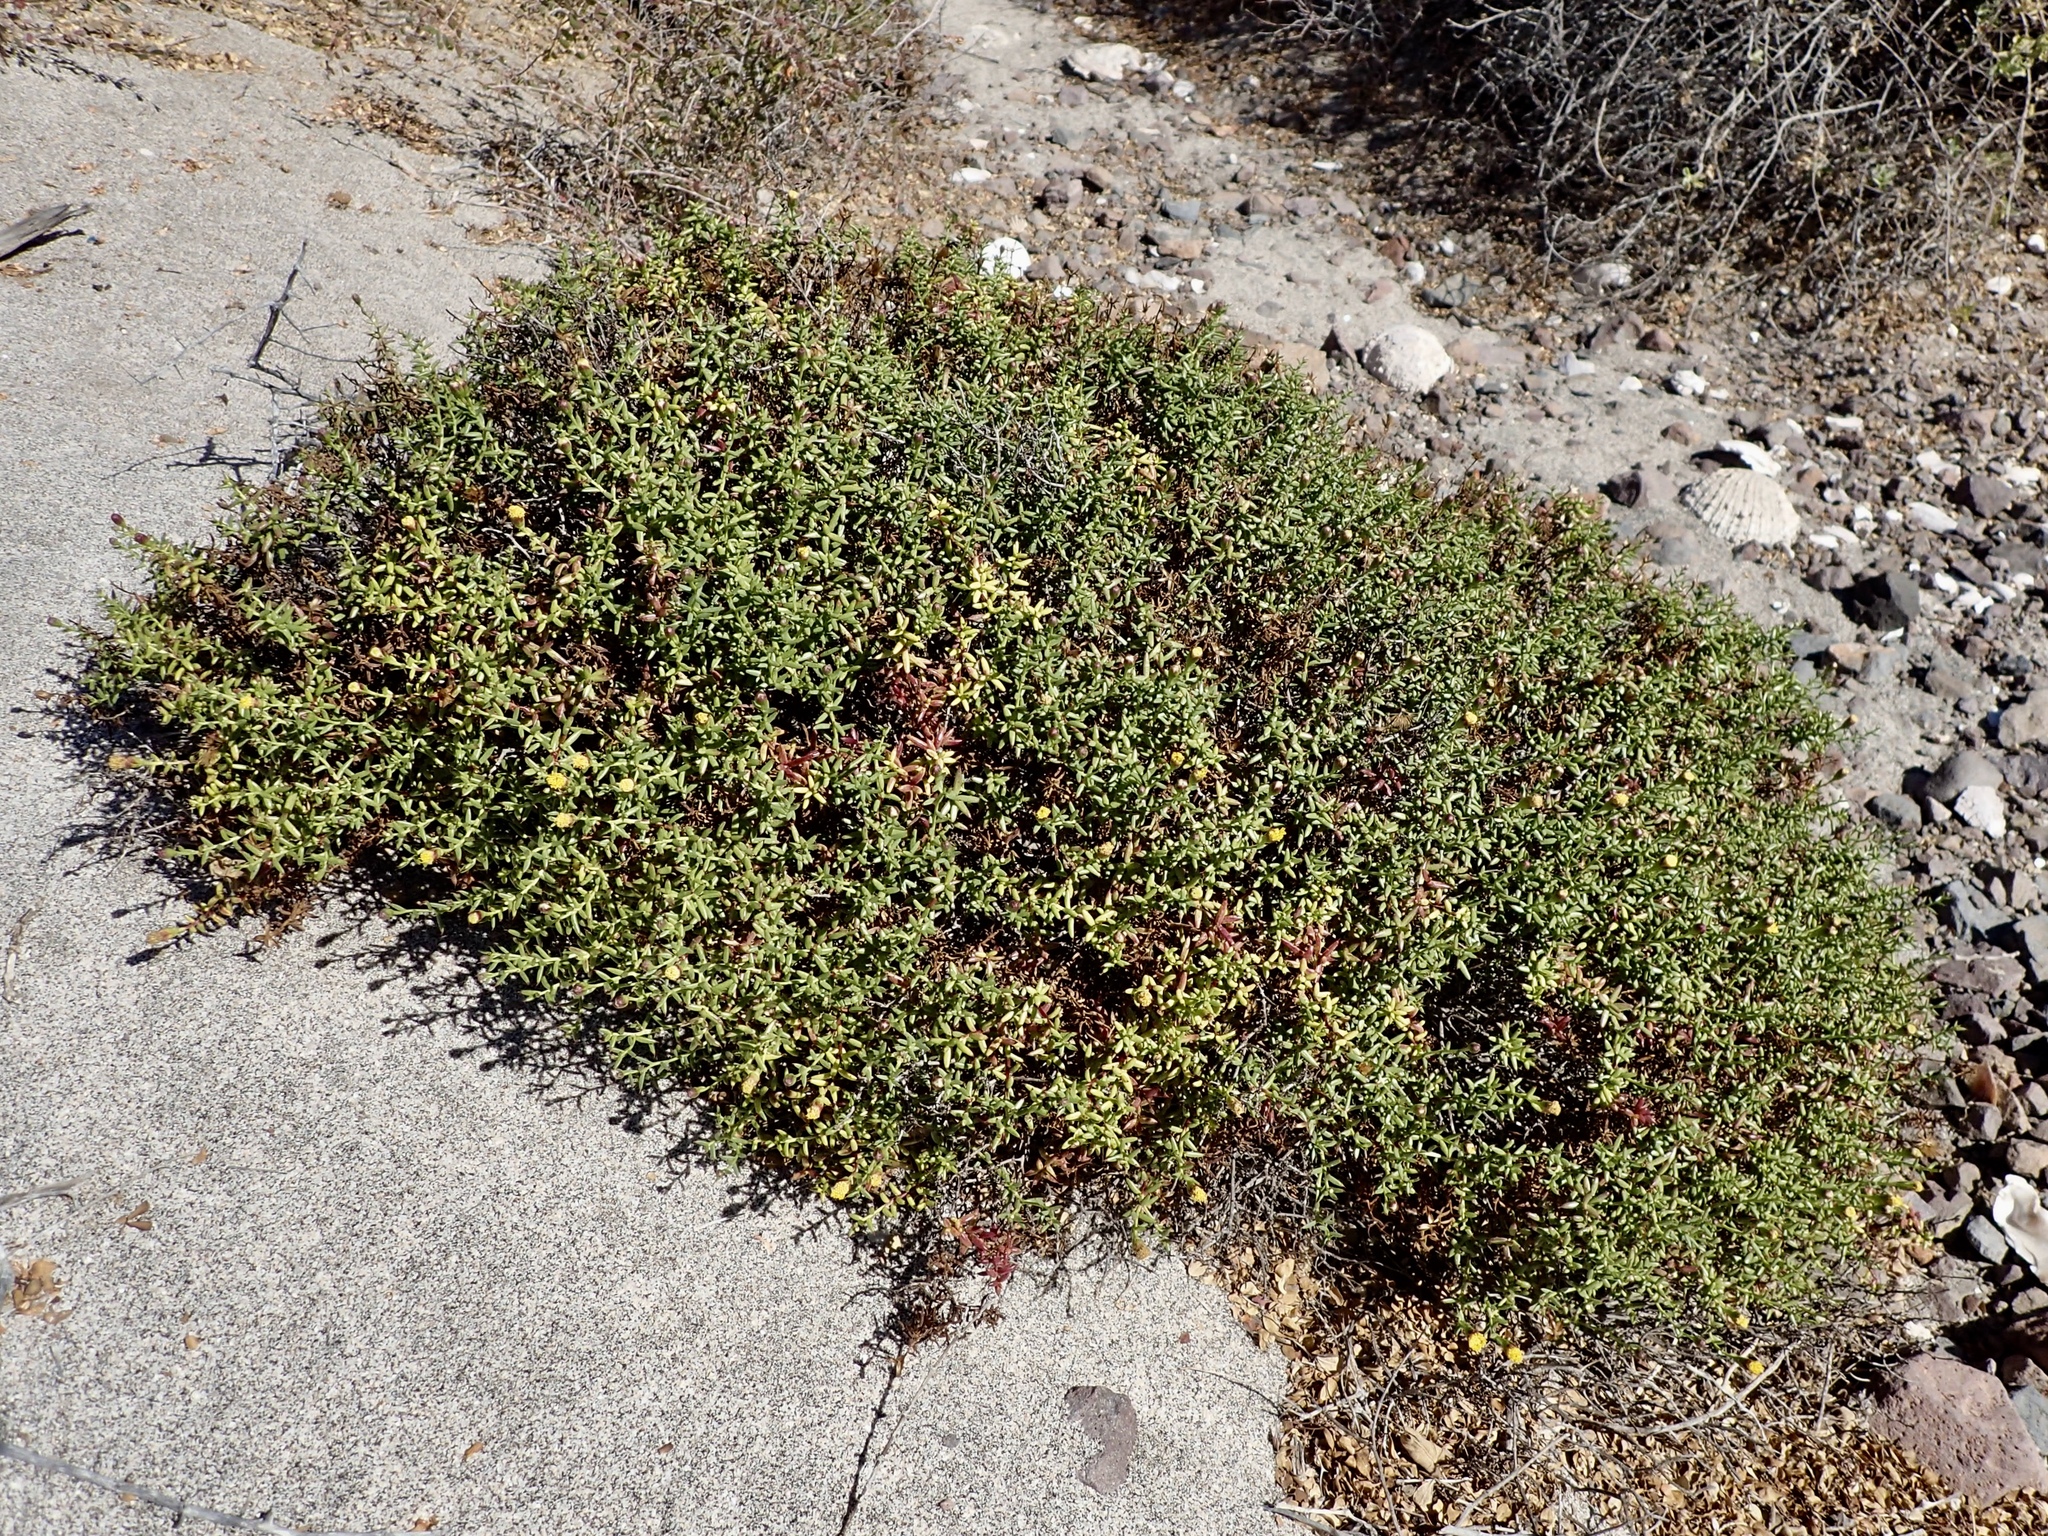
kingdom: Plantae
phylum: Tracheophyta
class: Magnoliopsida
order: Asterales
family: Asteraceae
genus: Bajacalia
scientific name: Bajacalia crassifolia
